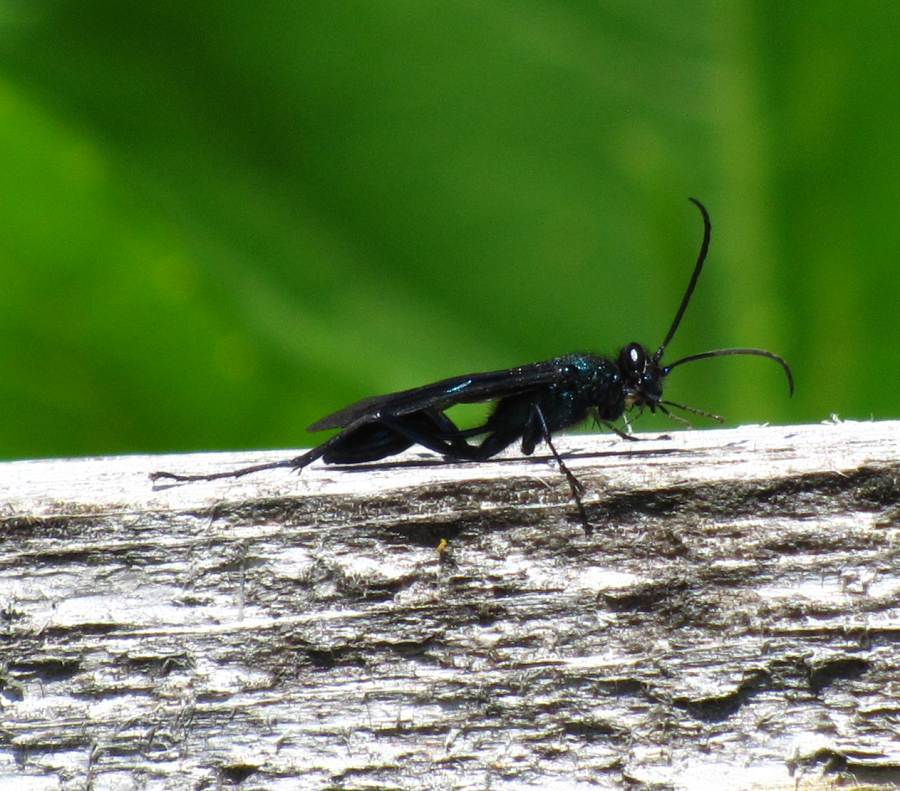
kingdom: Animalia
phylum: Arthropoda
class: Insecta
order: Hymenoptera
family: Sphecidae
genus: Chalybion
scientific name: Chalybion californicum
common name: Mud dauber
